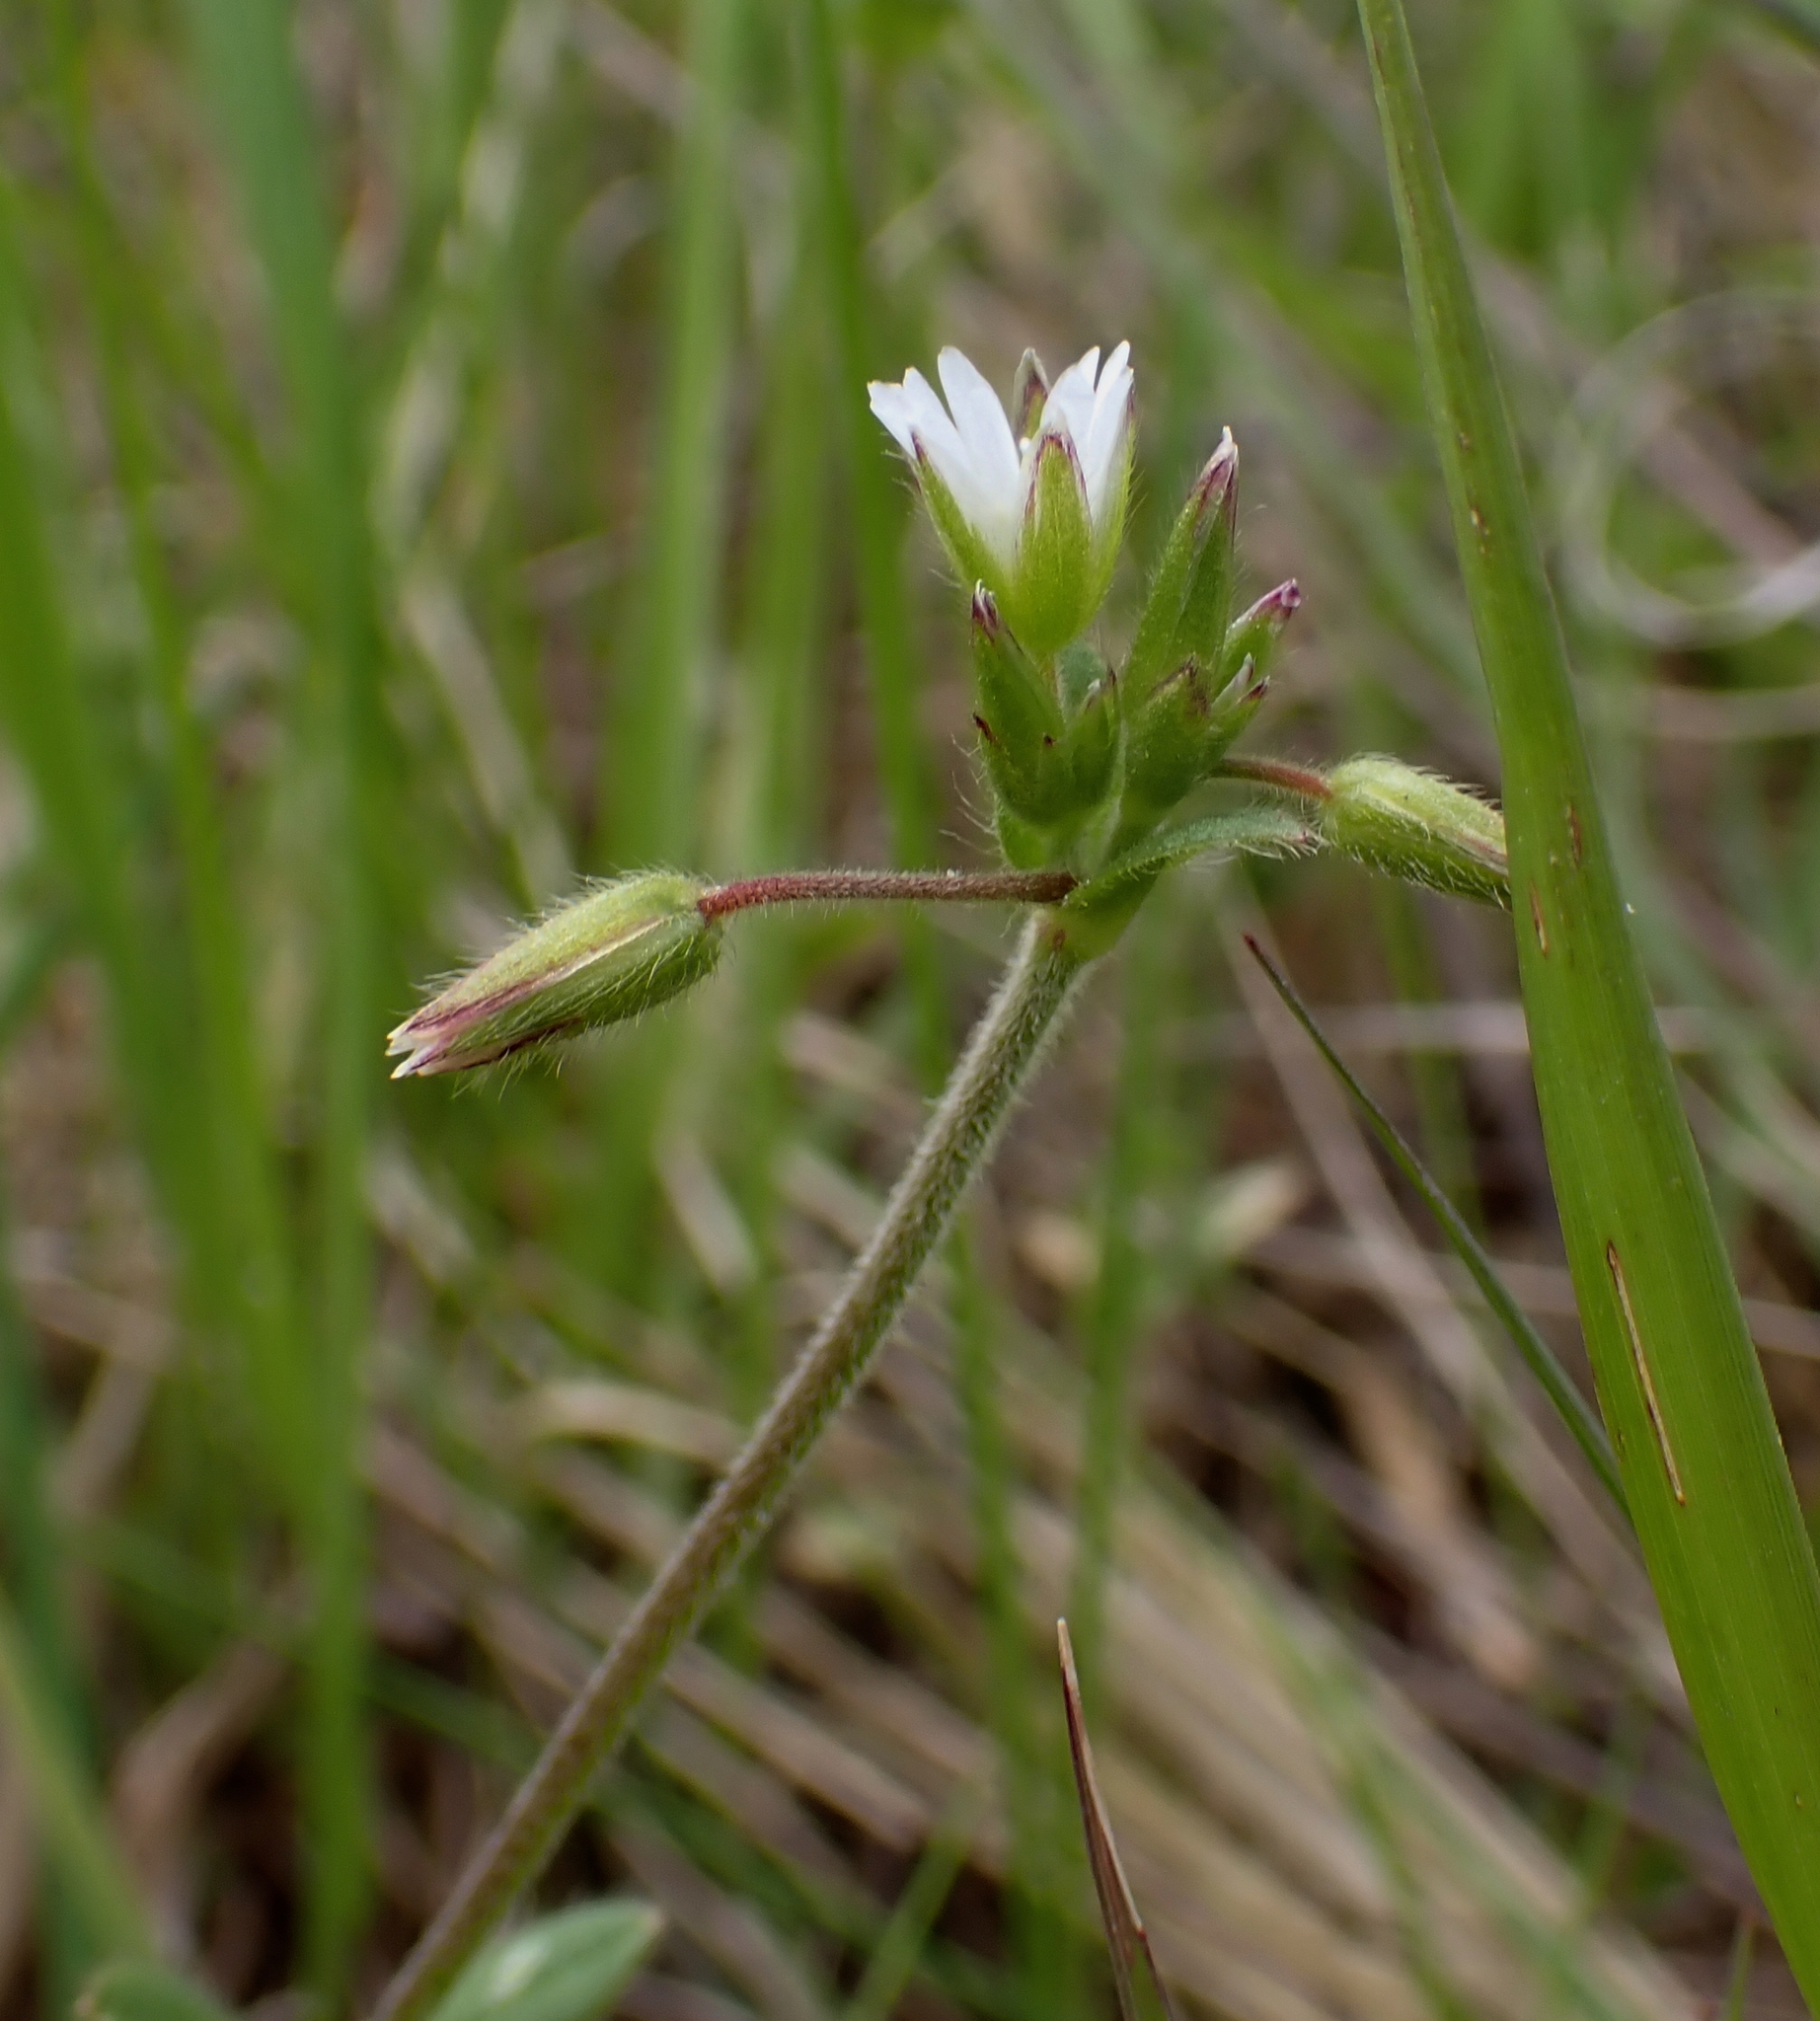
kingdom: Plantae
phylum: Tracheophyta
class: Magnoliopsida
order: Caryophyllales
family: Caryophyllaceae
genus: Cerastium
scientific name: Cerastium holosteoides
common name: Big chickweed
